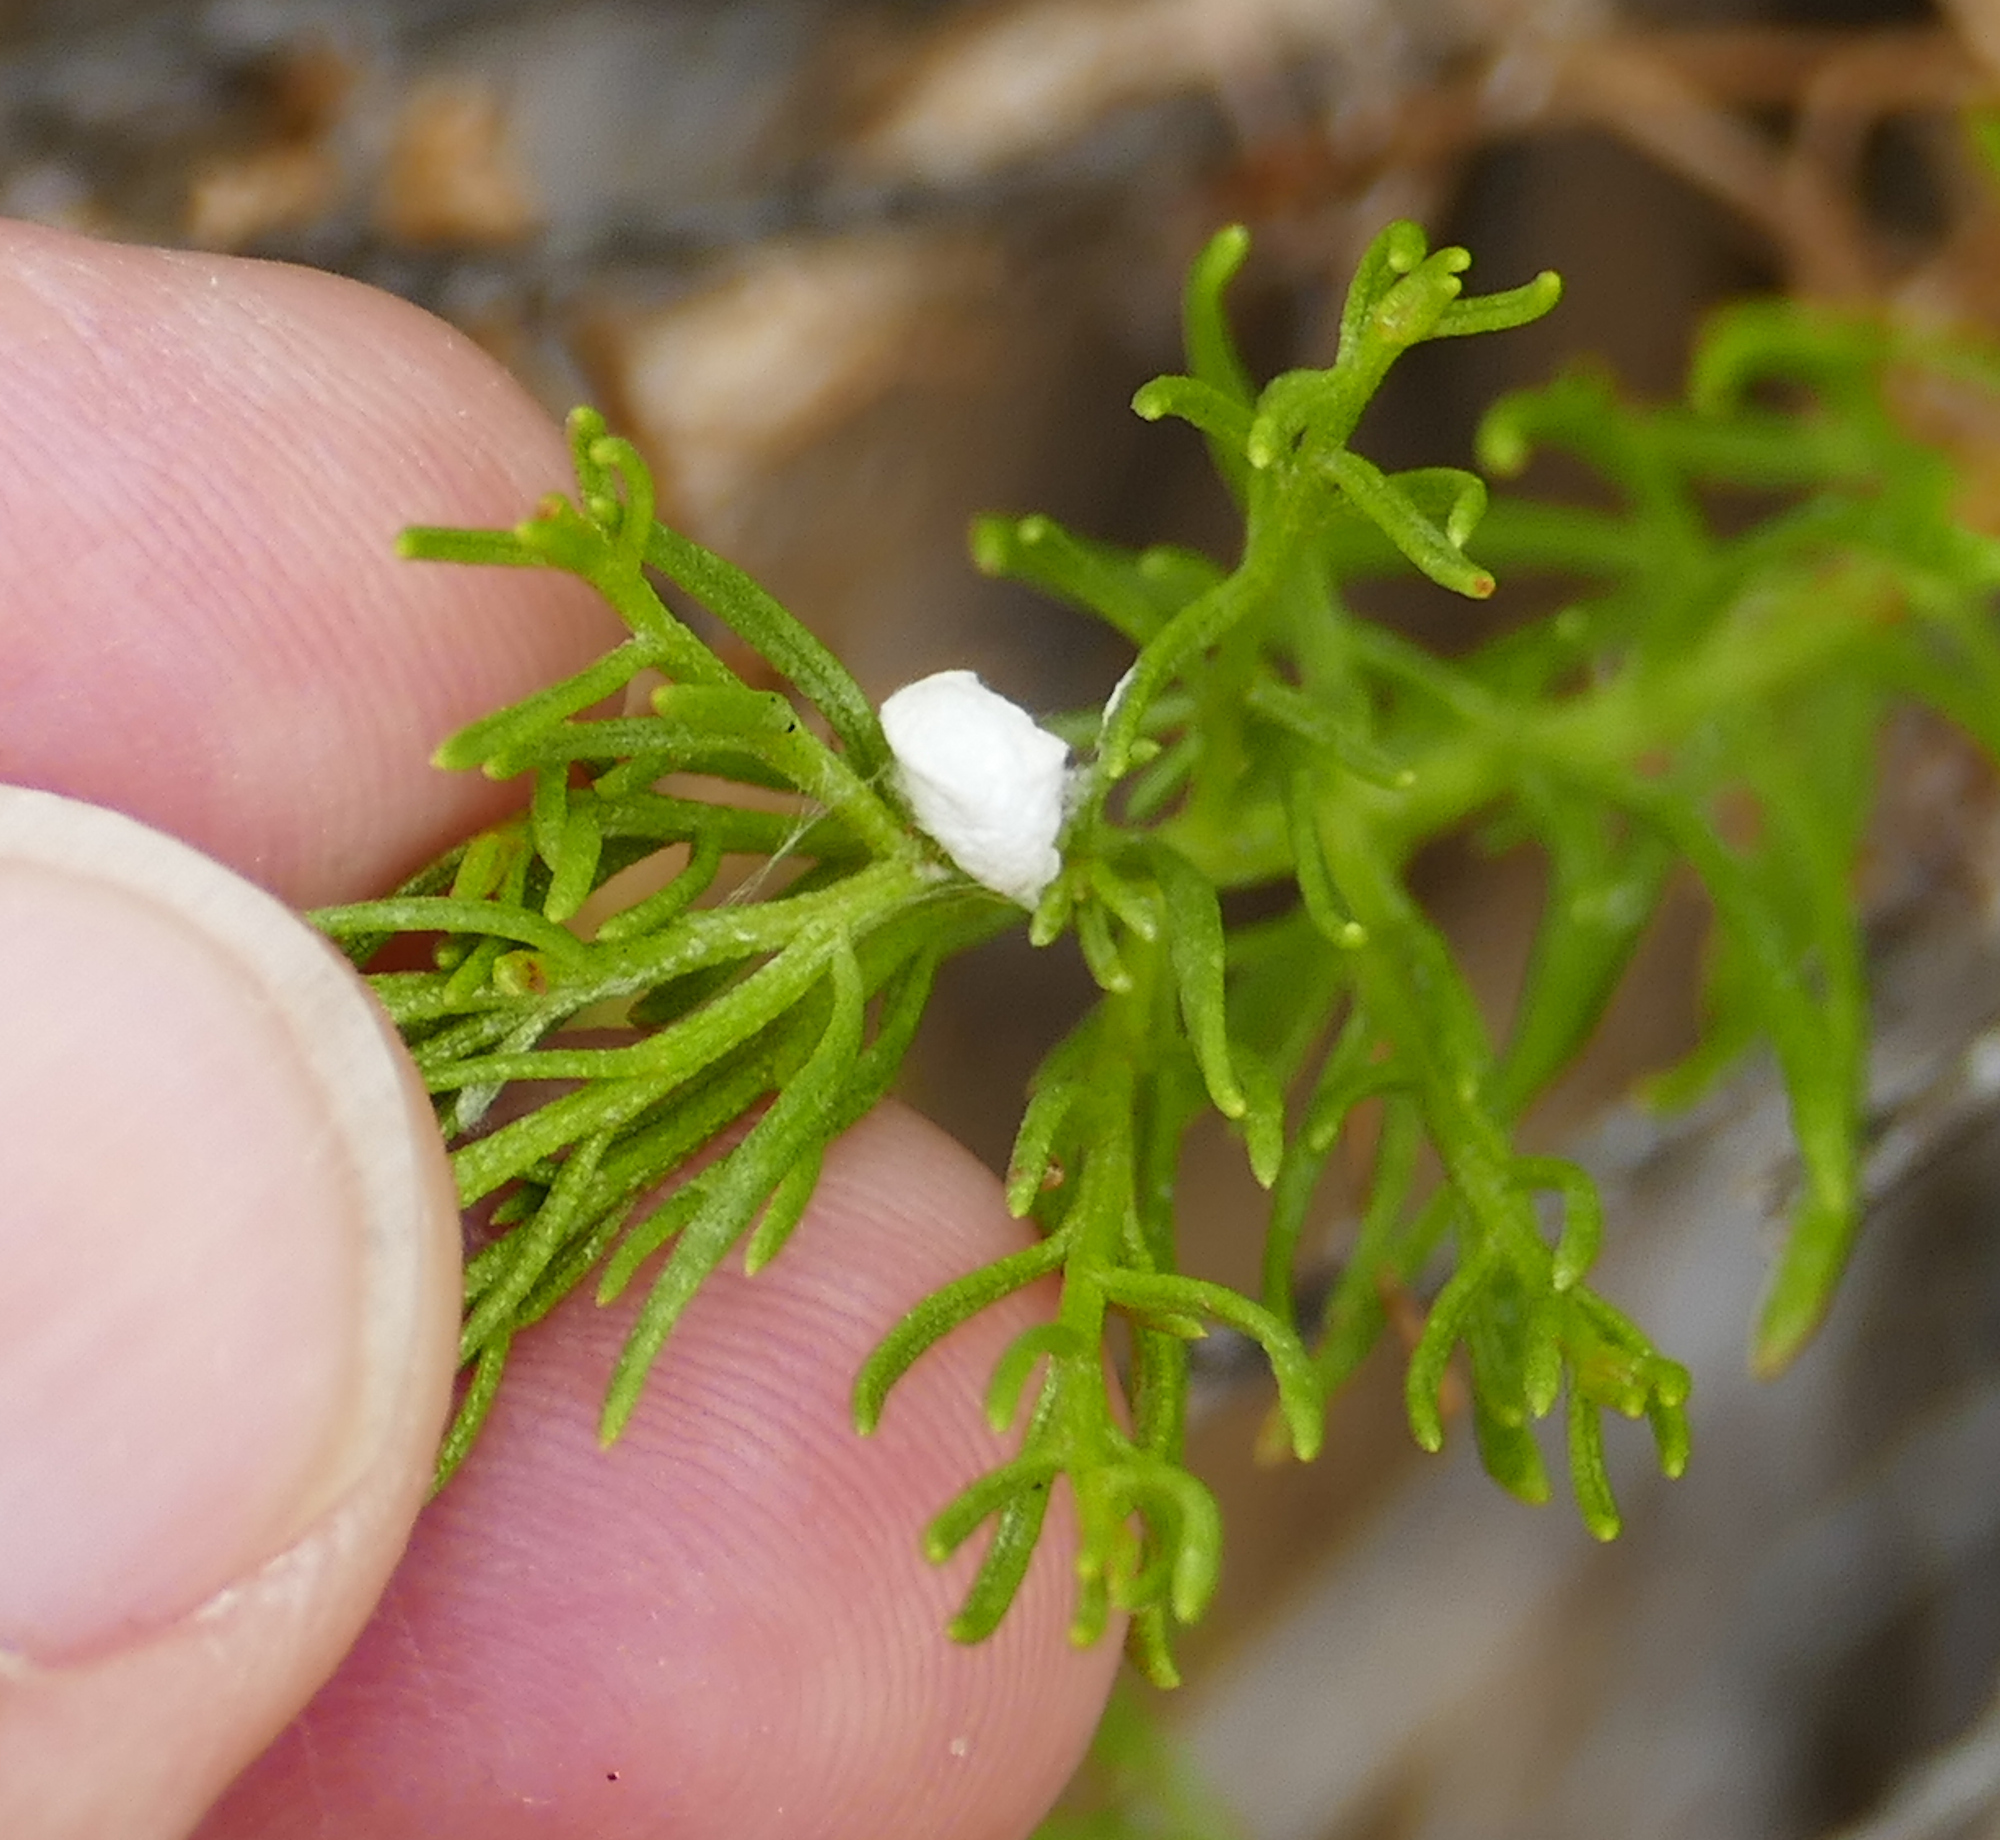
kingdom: Animalia
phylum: Arthropoda
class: Insecta
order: Lepidoptera
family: Epipyropidae
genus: Fulgoraecia
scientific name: Fulgoraecia exigua
